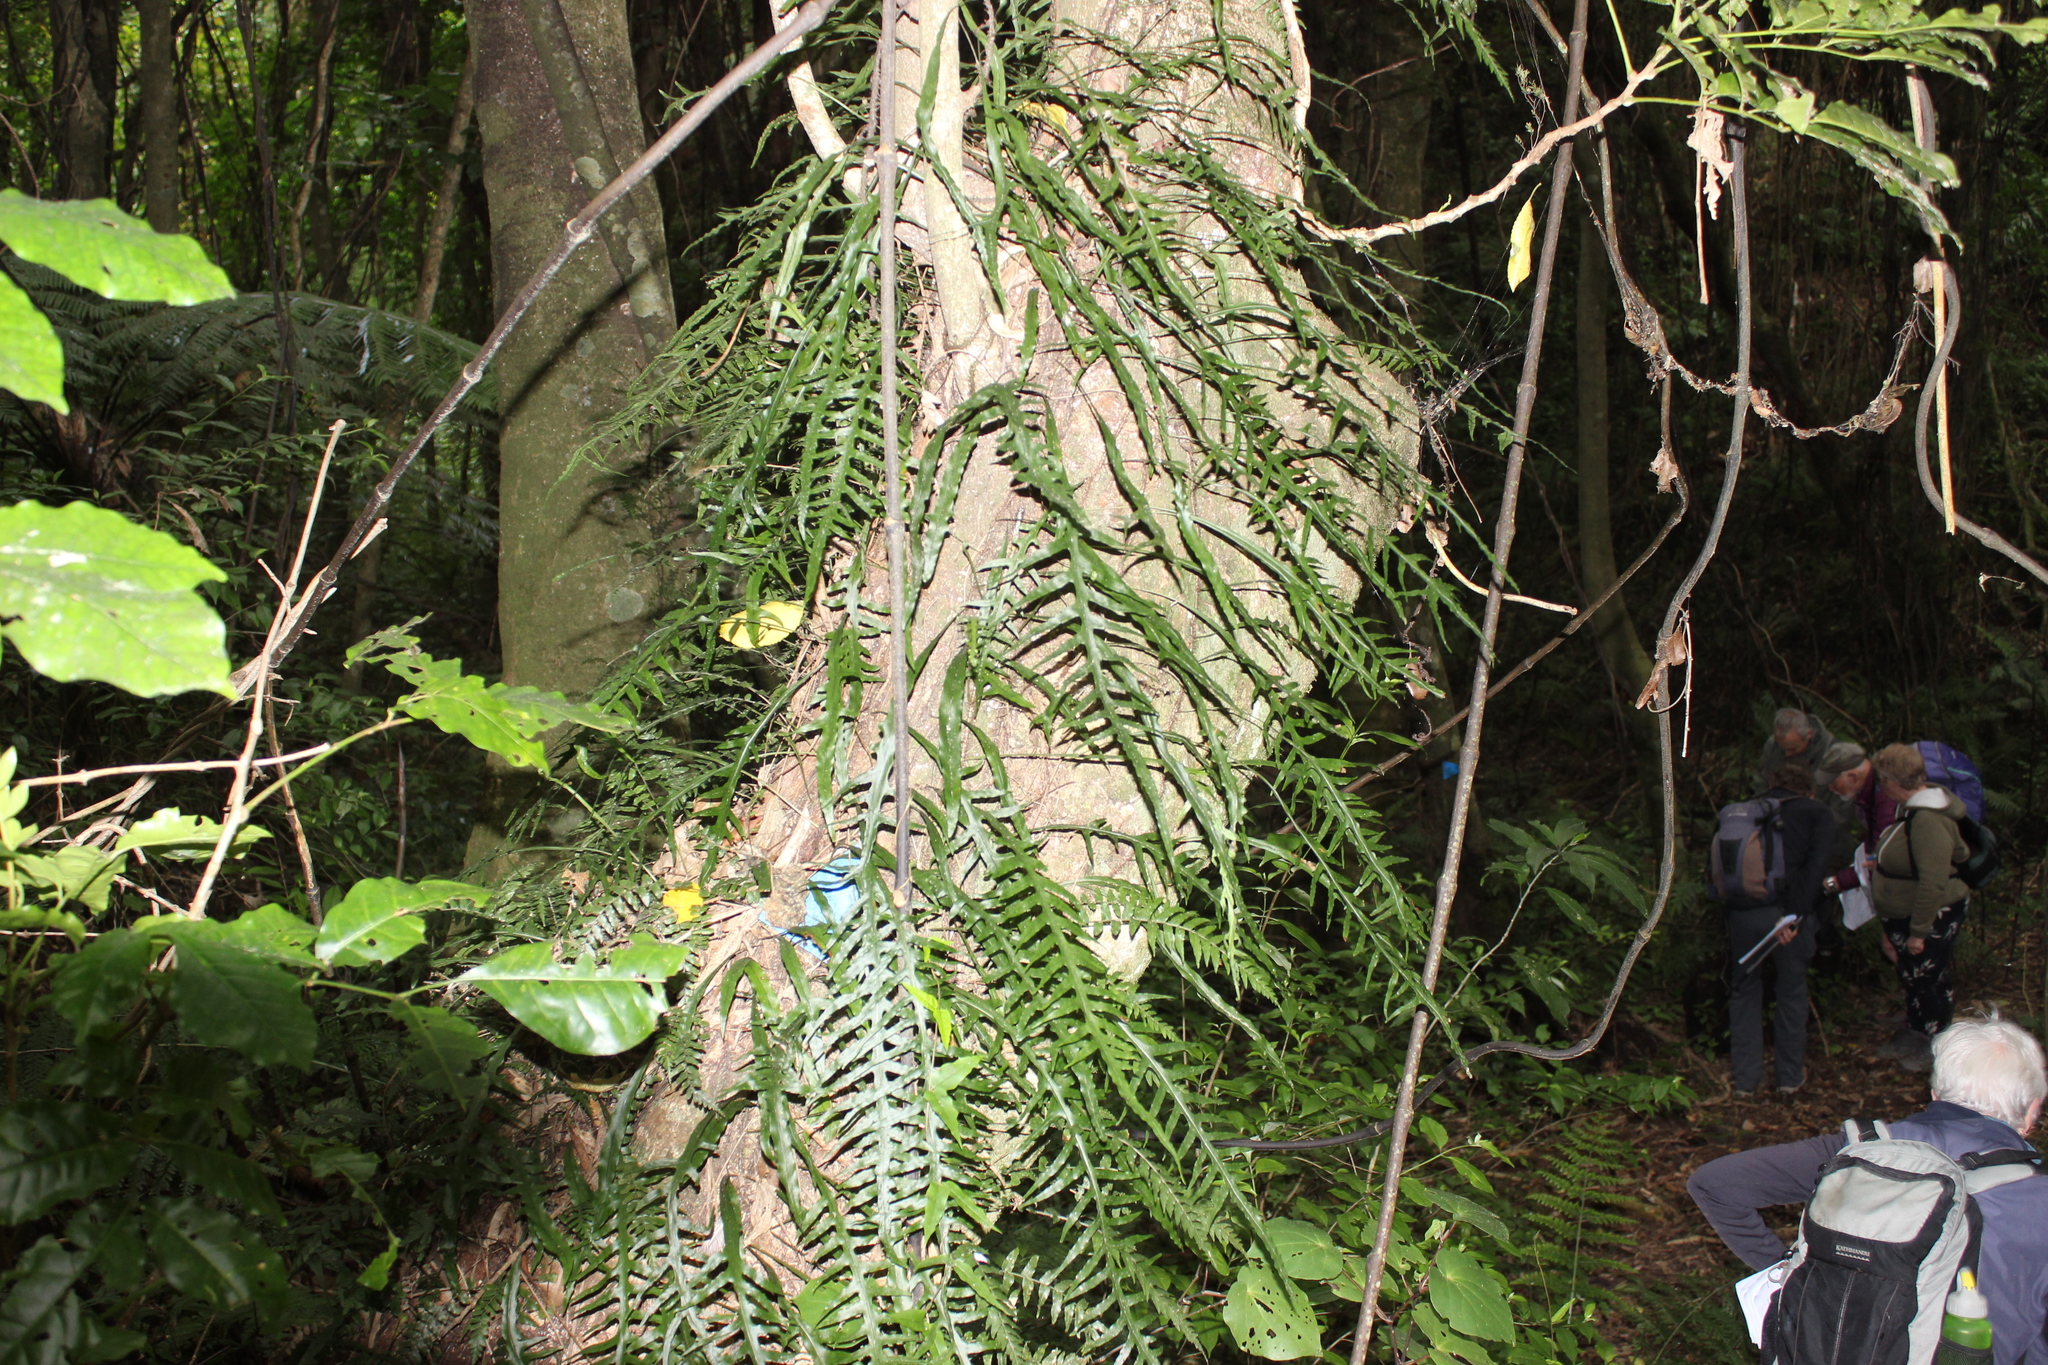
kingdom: Plantae
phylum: Tracheophyta
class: Polypodiopsida
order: Polypodiales
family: Polypodiaceae
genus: Lecanopteris
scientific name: Lecanopteris scandens
